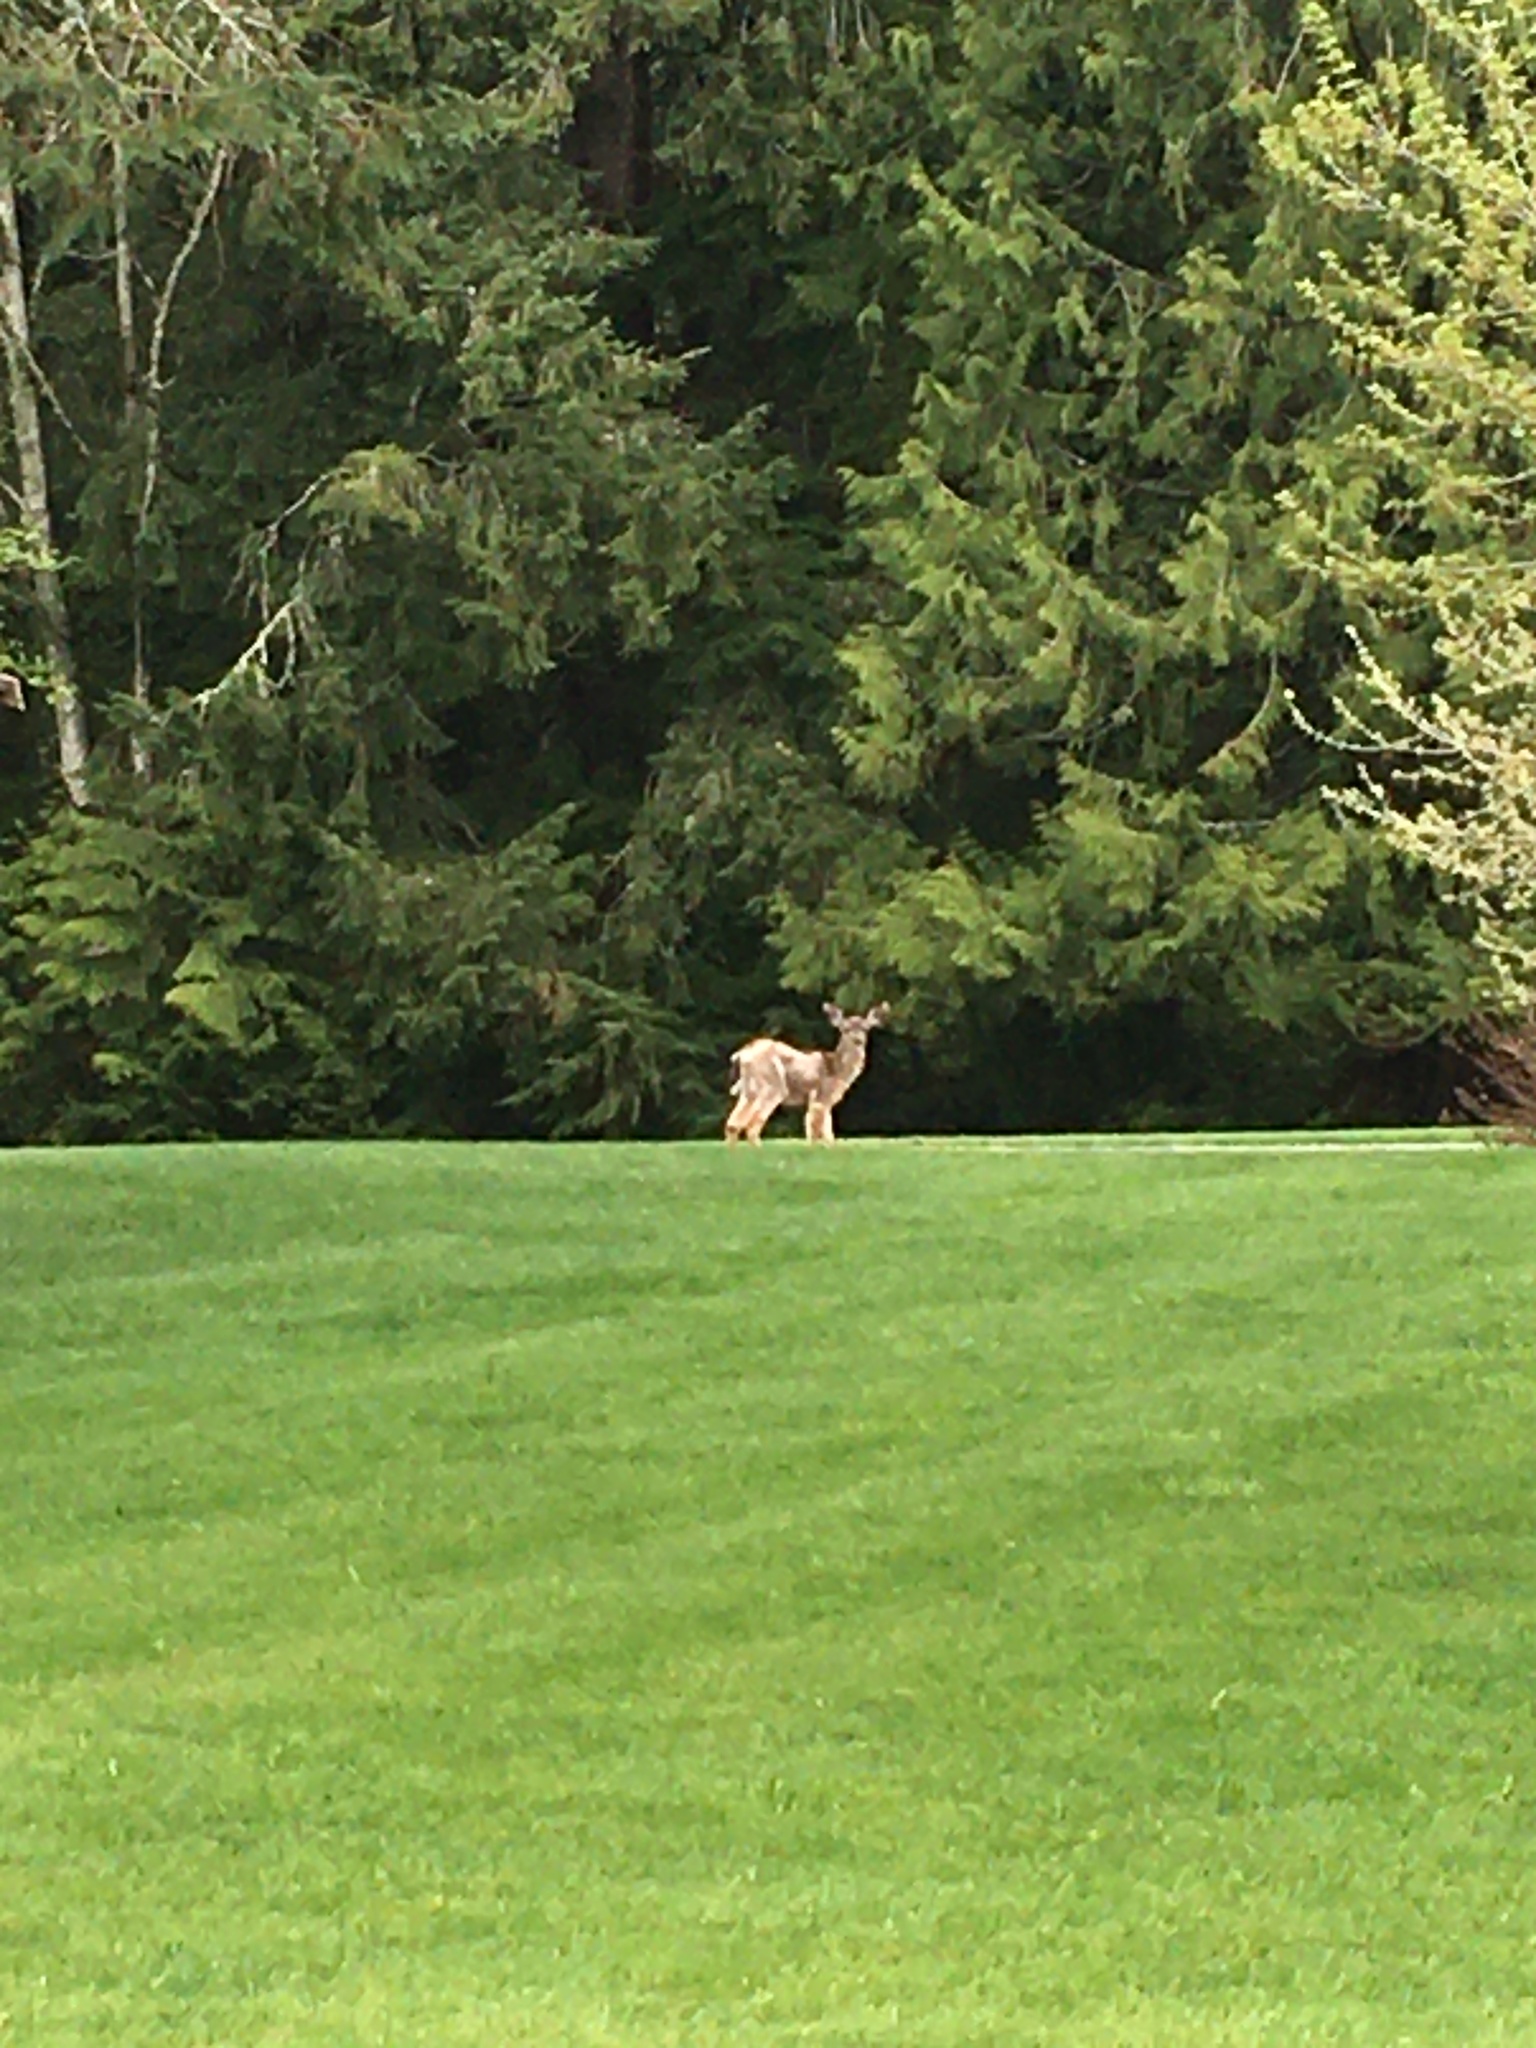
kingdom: Animalia
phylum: Chordata
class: Mammalia
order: Artiodactyla
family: Cervidae
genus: Odocoileus
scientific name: Odocoileus hemionus
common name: Mule deer
